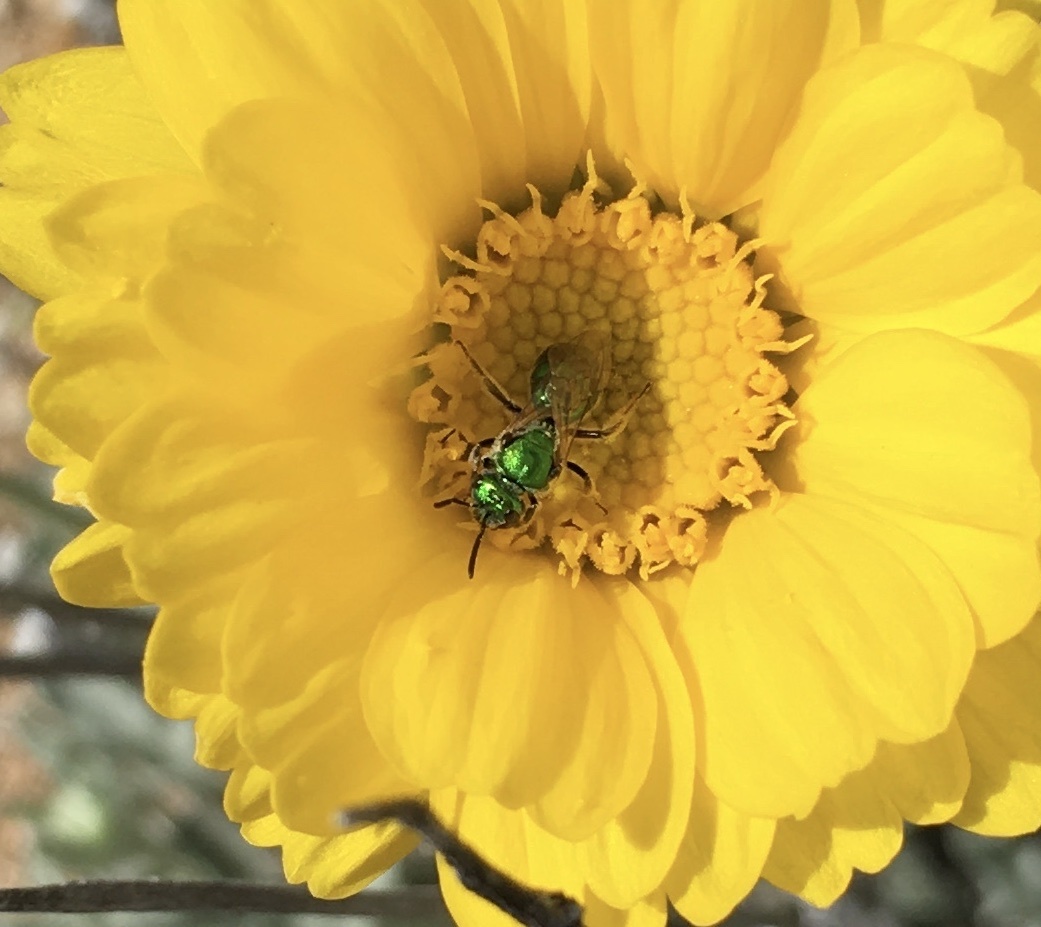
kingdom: Animalia
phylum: Arthropoda
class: Insecta
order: Hymenoptera
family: Halictidae
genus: Augochlorella
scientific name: Augochlorella pomoniella
